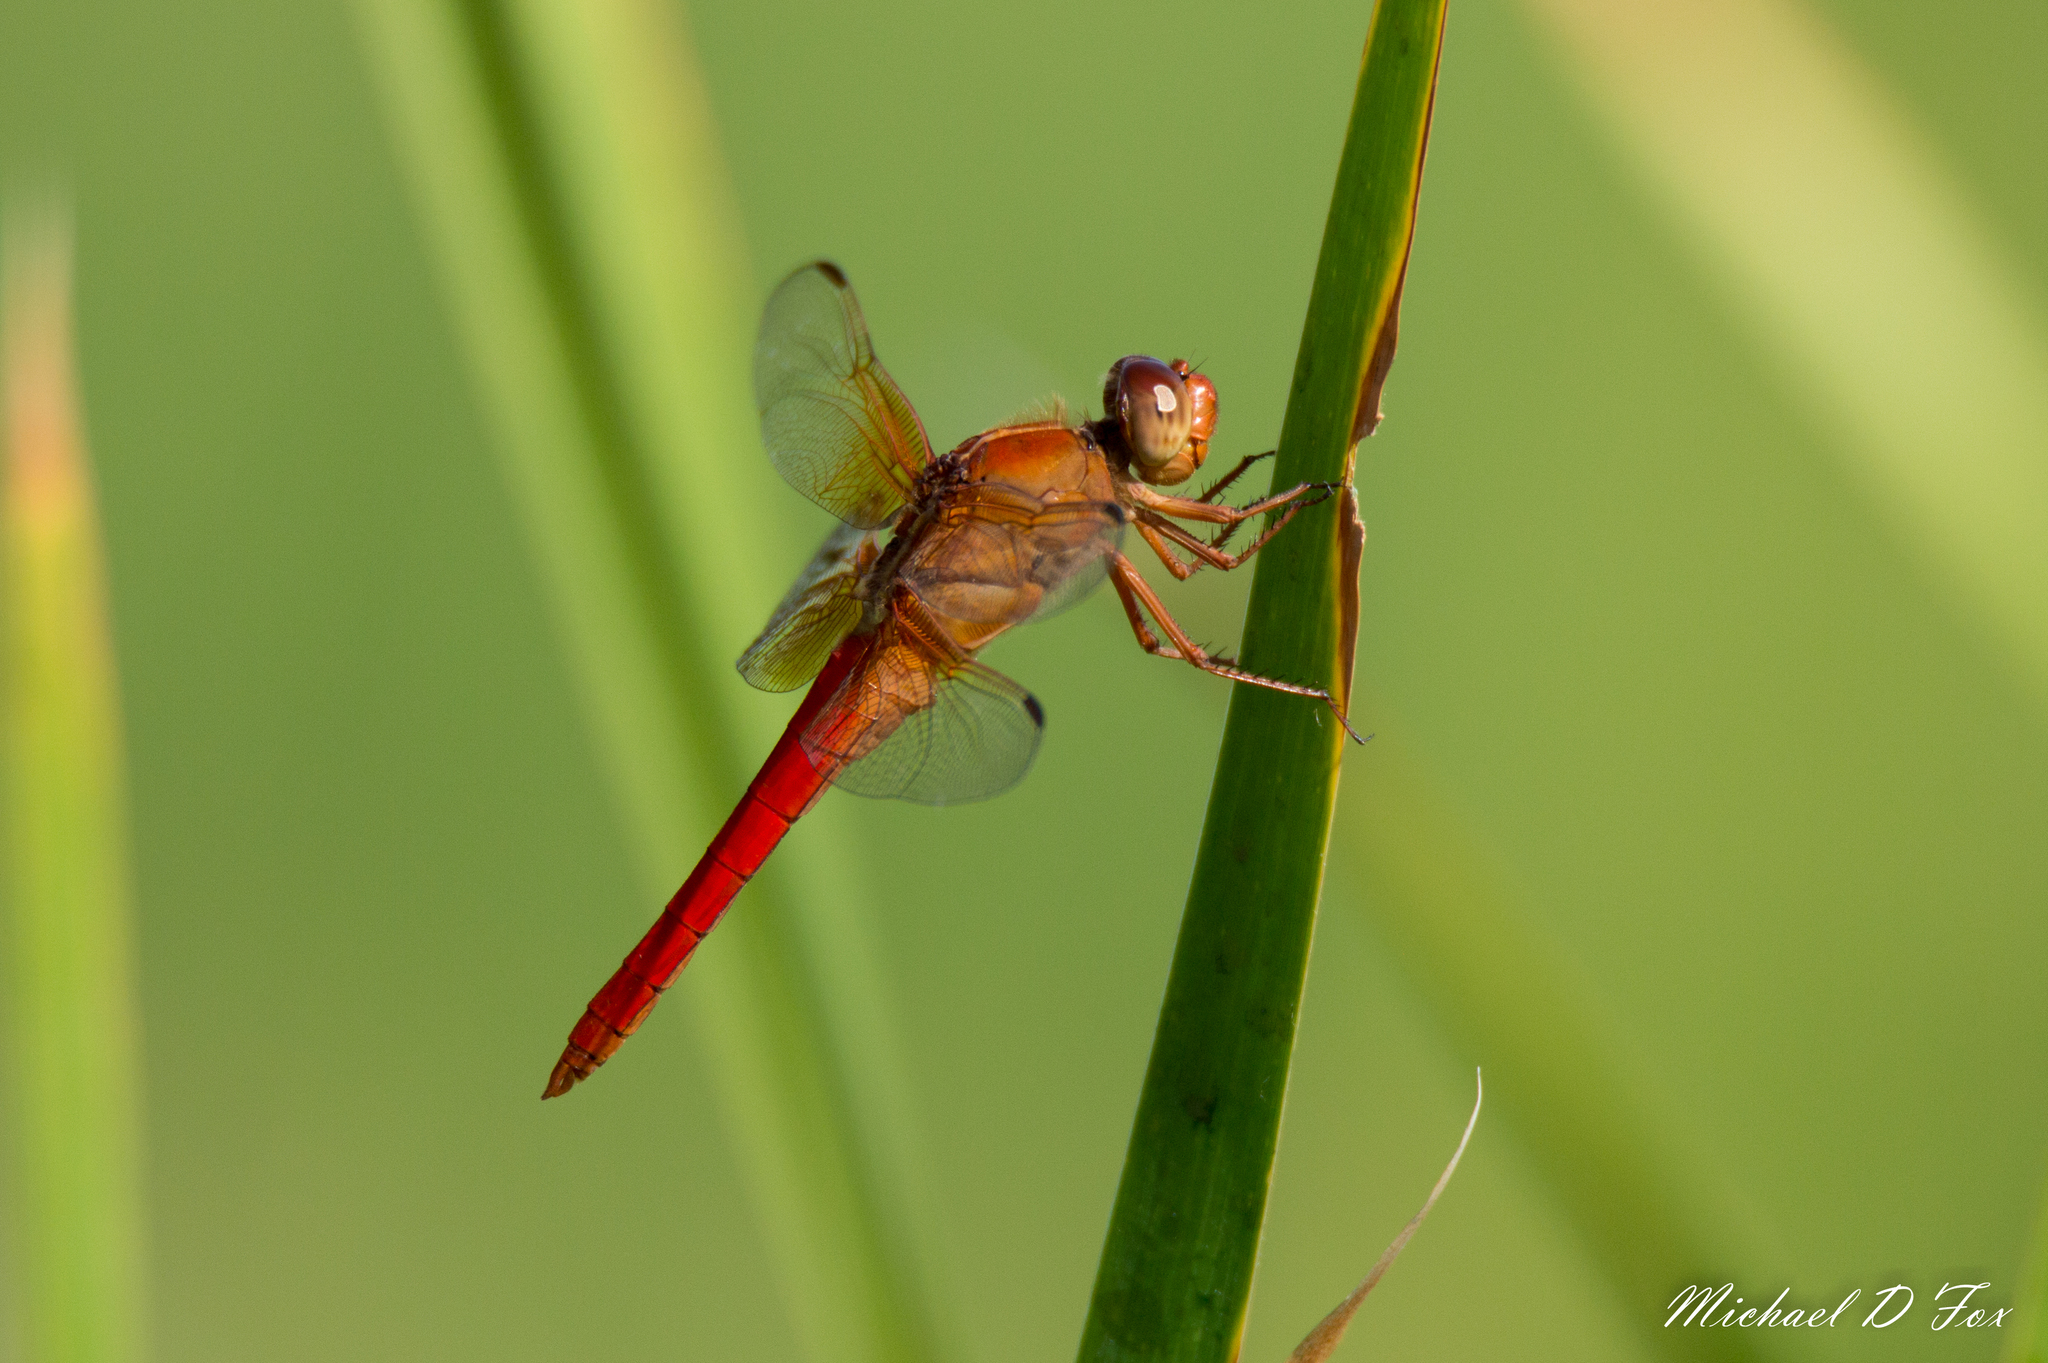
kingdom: Animalia
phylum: Arthropoda
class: Insecta
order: Odonata
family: Libellulidae
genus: Libellula
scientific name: Libellula croceipennis
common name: Neon skimmer
